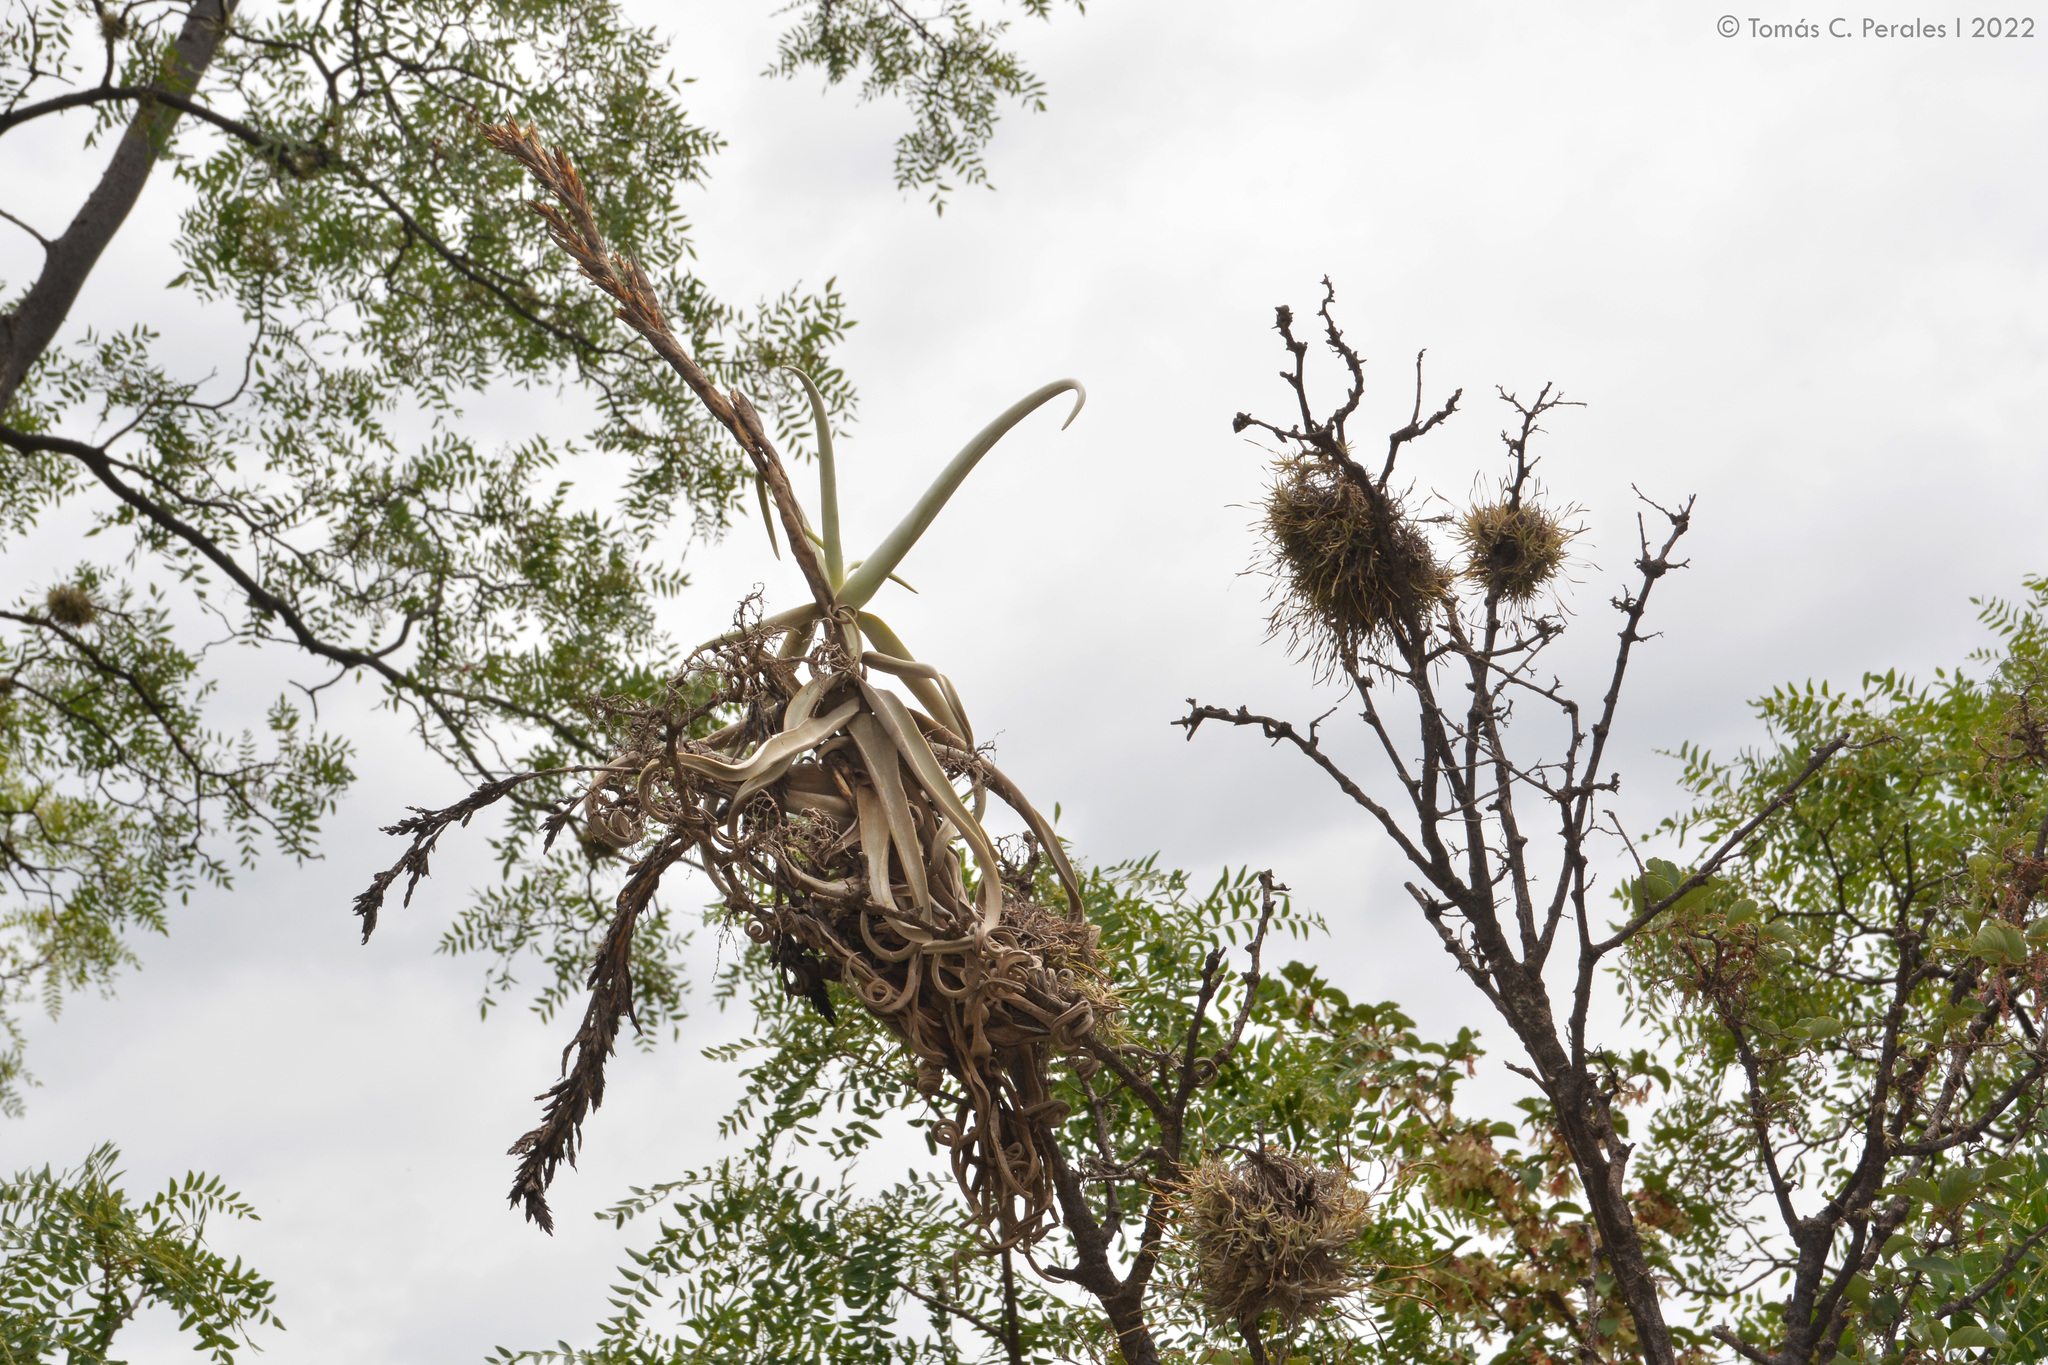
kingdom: Plantae
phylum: Tracheophyta
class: Liliopsida
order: Poales
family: Bromeliaceae
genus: Tillandsia
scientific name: Tillandsia duratii
